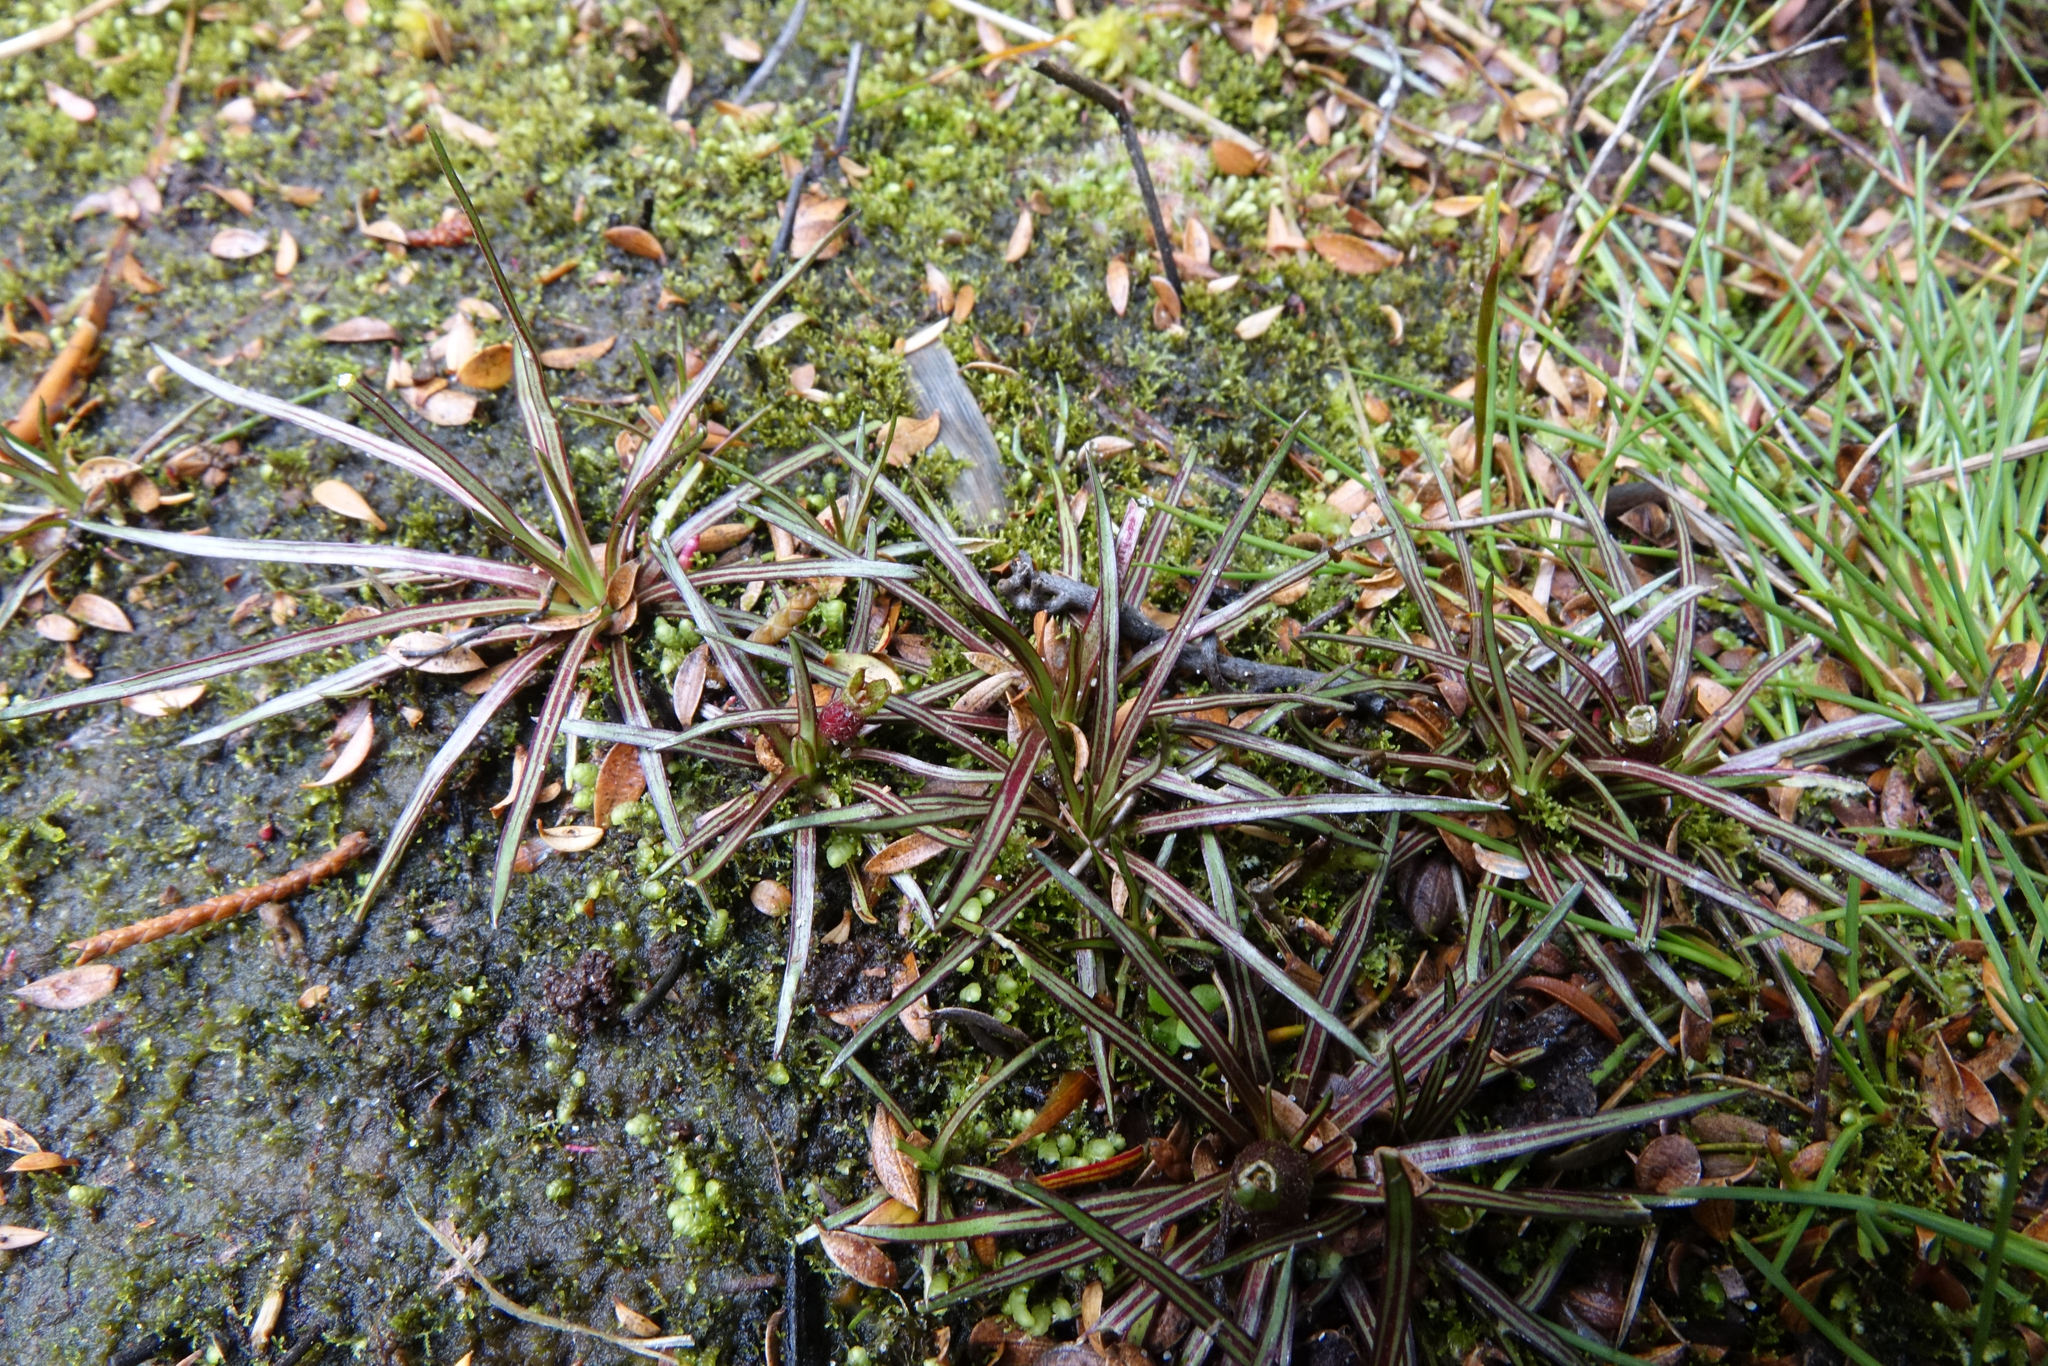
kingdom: Plantae
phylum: Tracheophyta
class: Magnoliopsida
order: Asterales
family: Stylidiaceae
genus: Oreostylidium
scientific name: Oreostylidium subulatum
